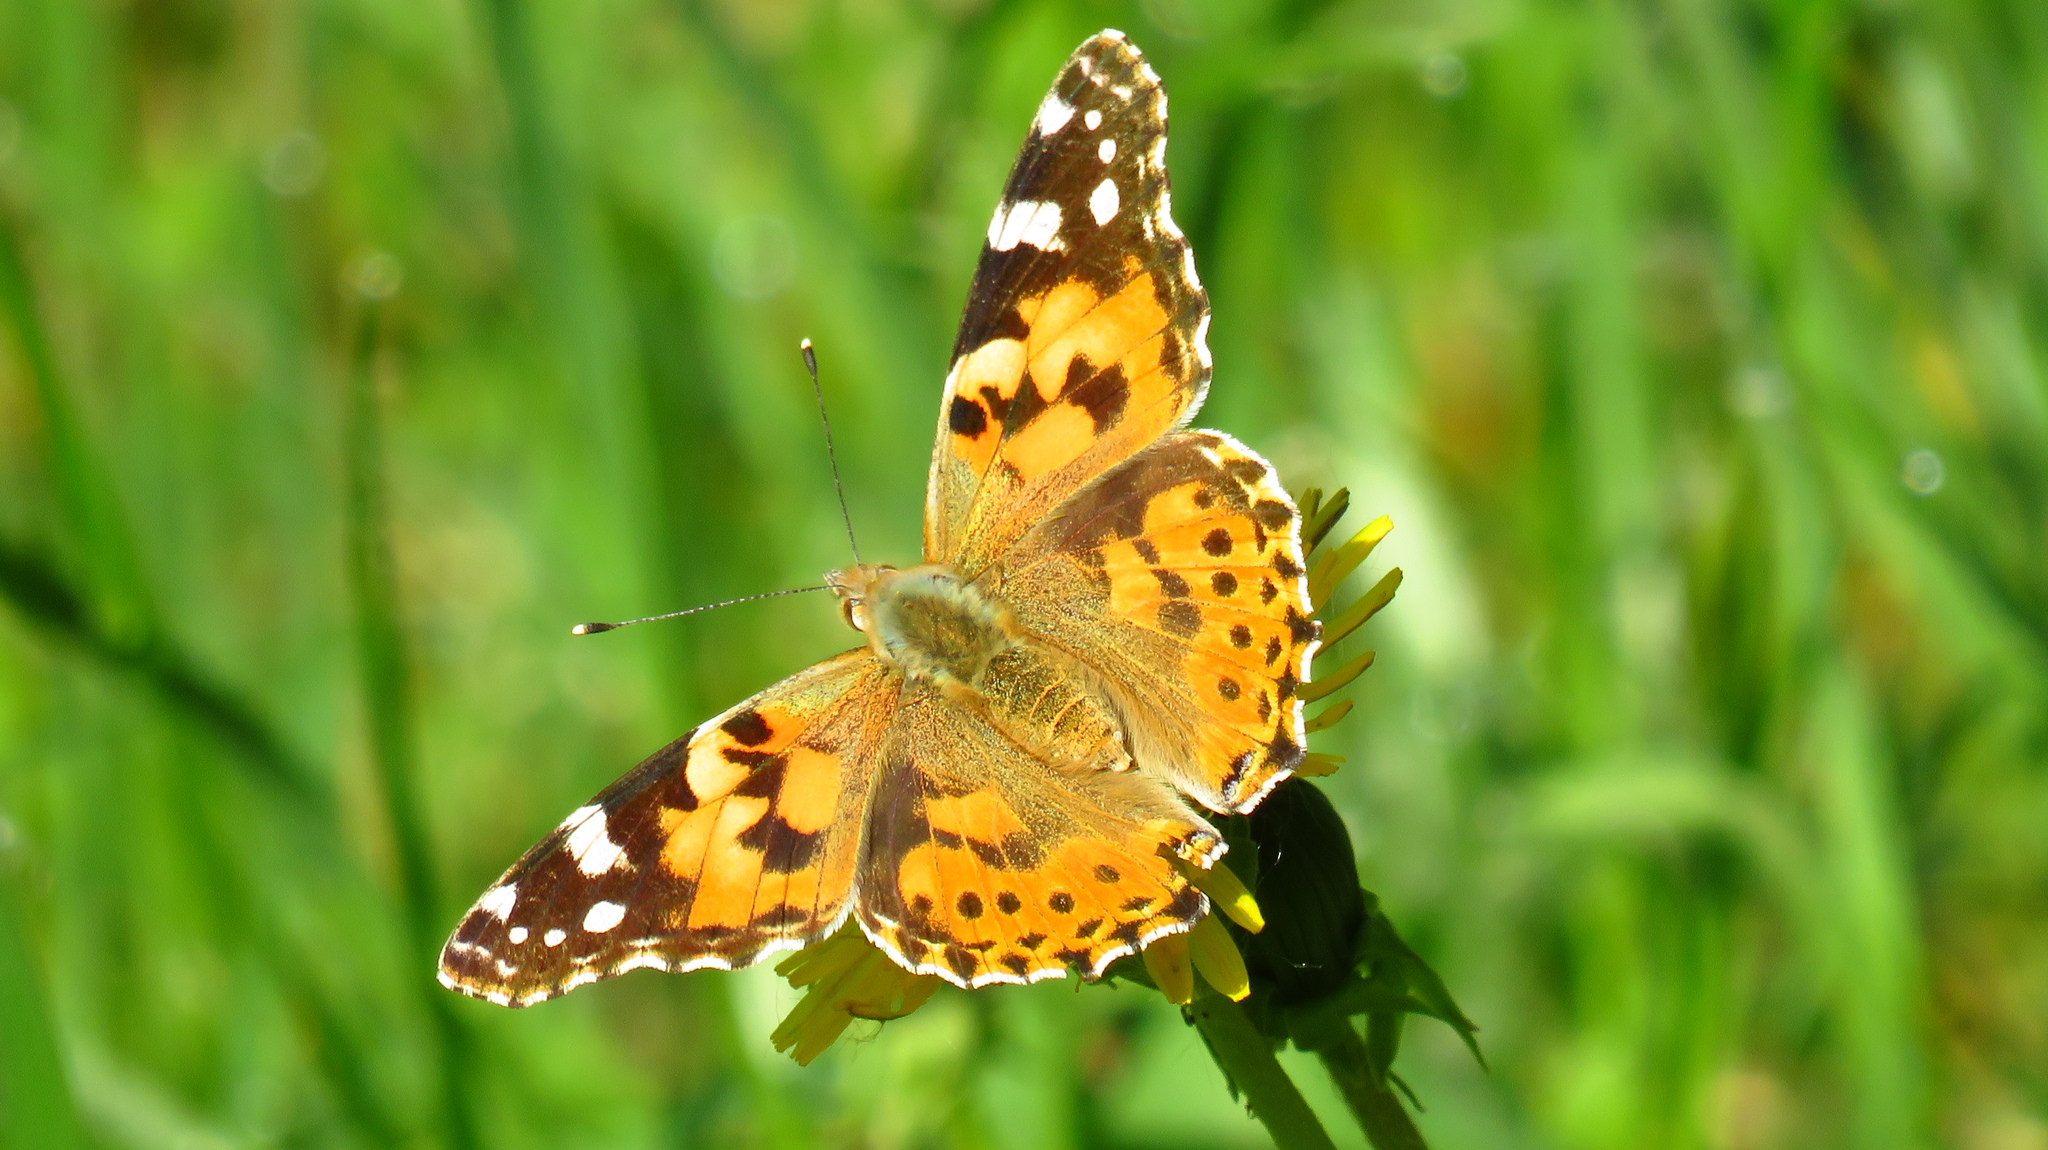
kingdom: Animalia
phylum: Arthropoda
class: Insecta
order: Lepidoptera
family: Nymphalidae
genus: Vanessa
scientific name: Vanessa cardui
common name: Painted lady
